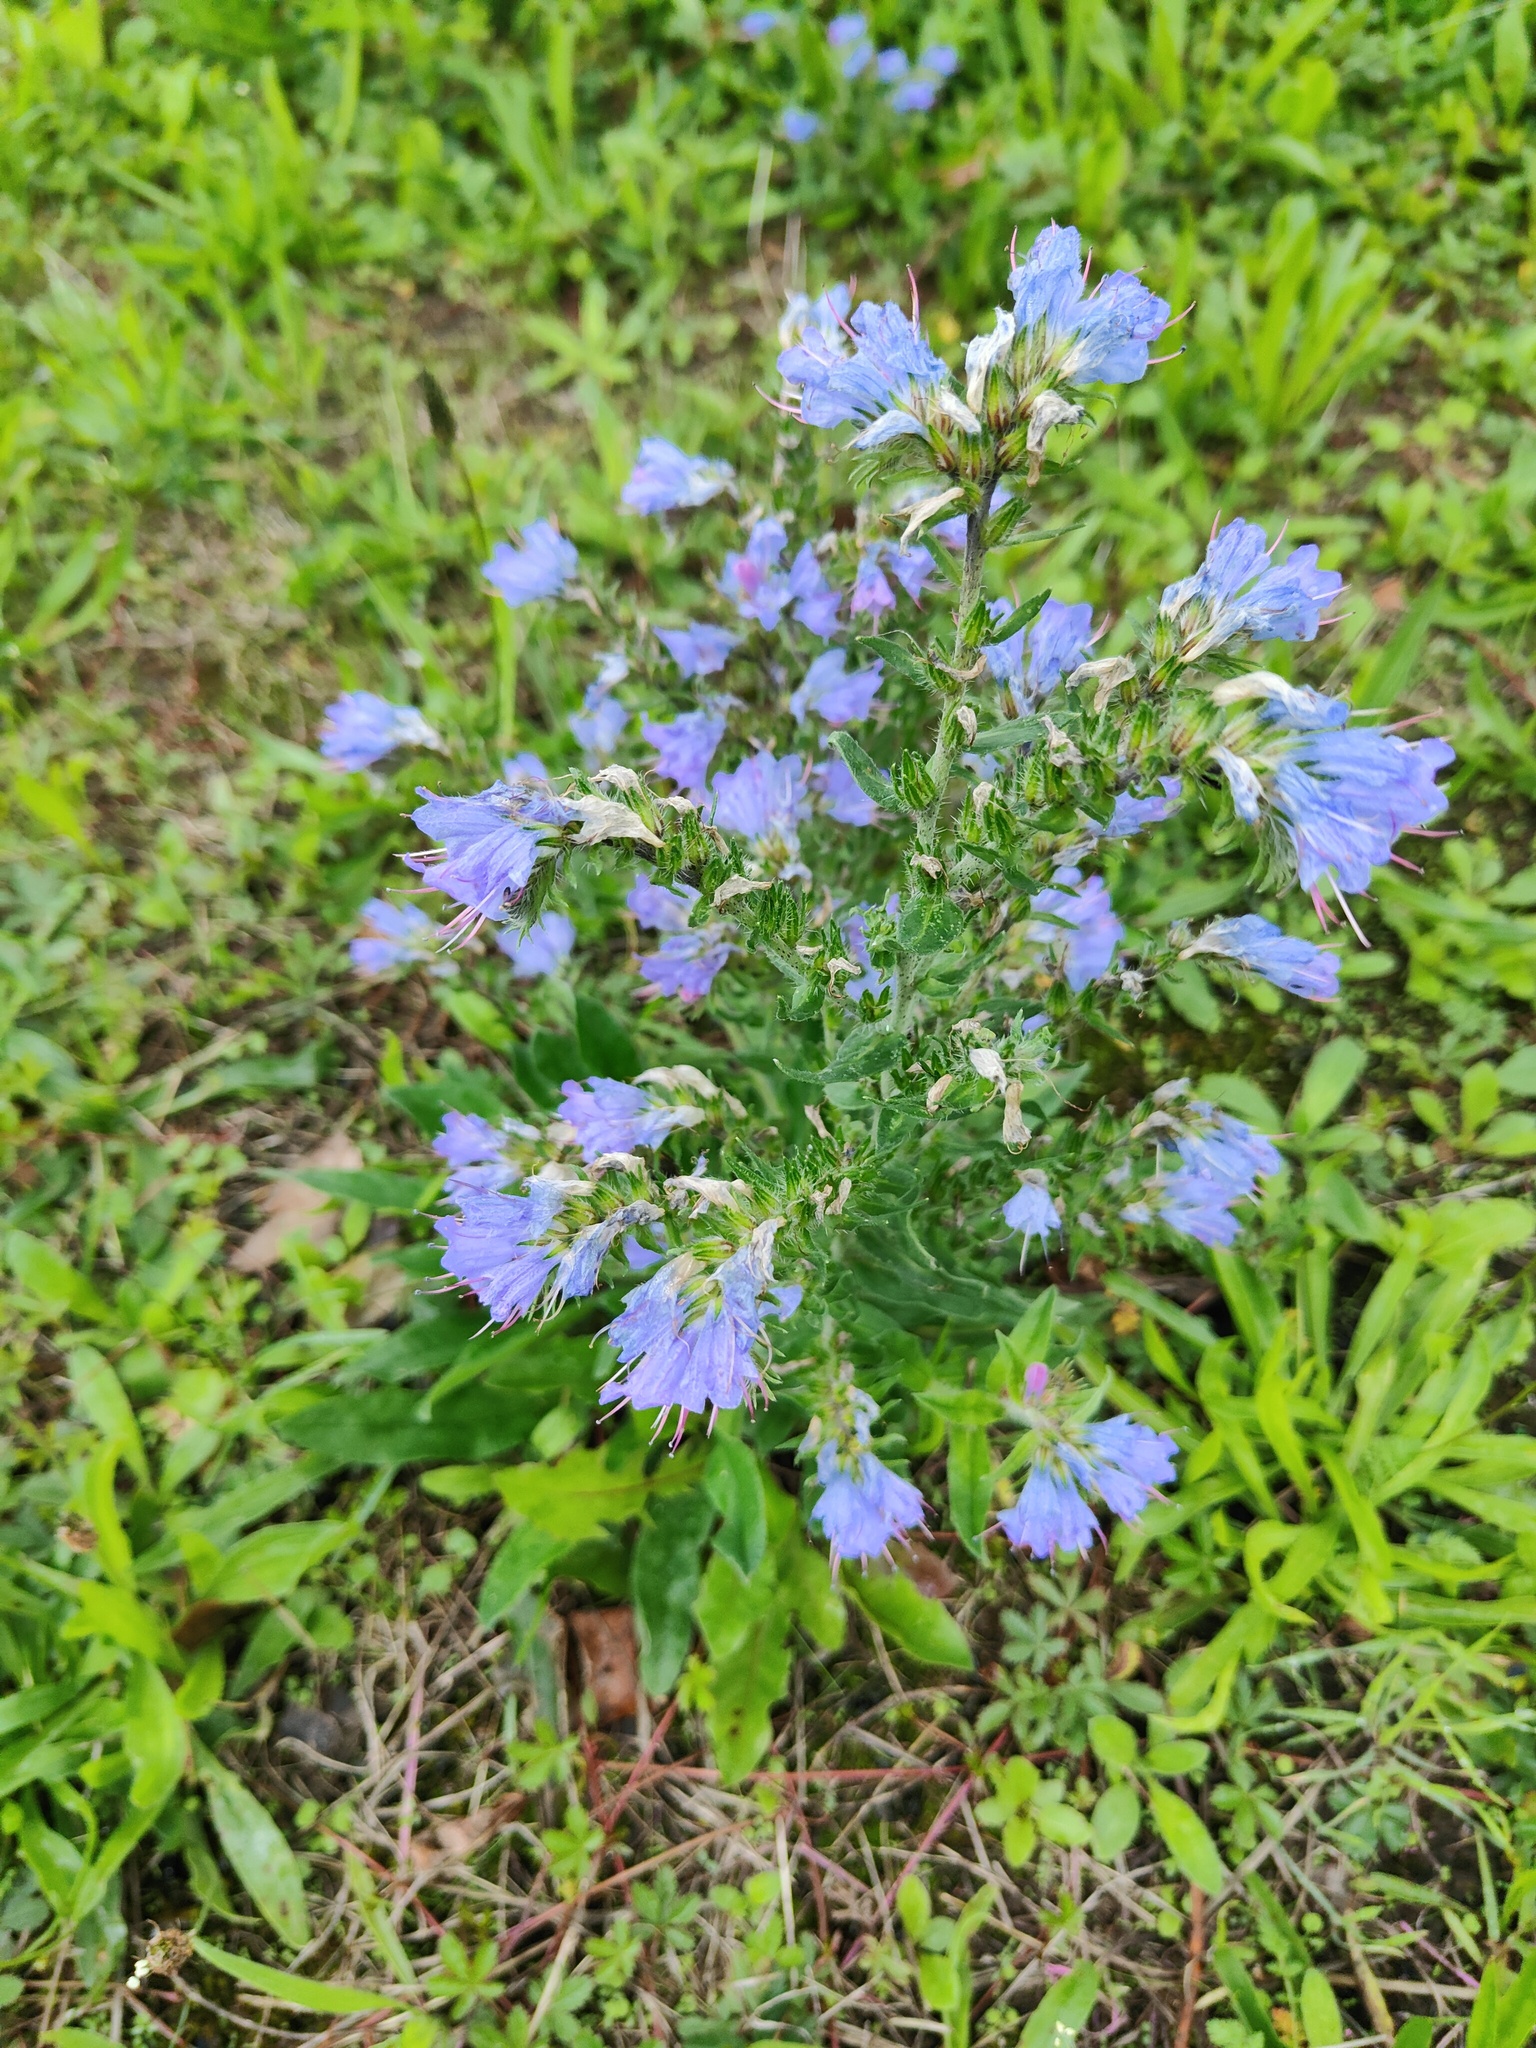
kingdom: Plantae
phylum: Tracheophyta
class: Magnoliopsida
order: Boraginales
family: Boraginaceae
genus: Echium
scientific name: Echium vulgare
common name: Common viper's bugloss
